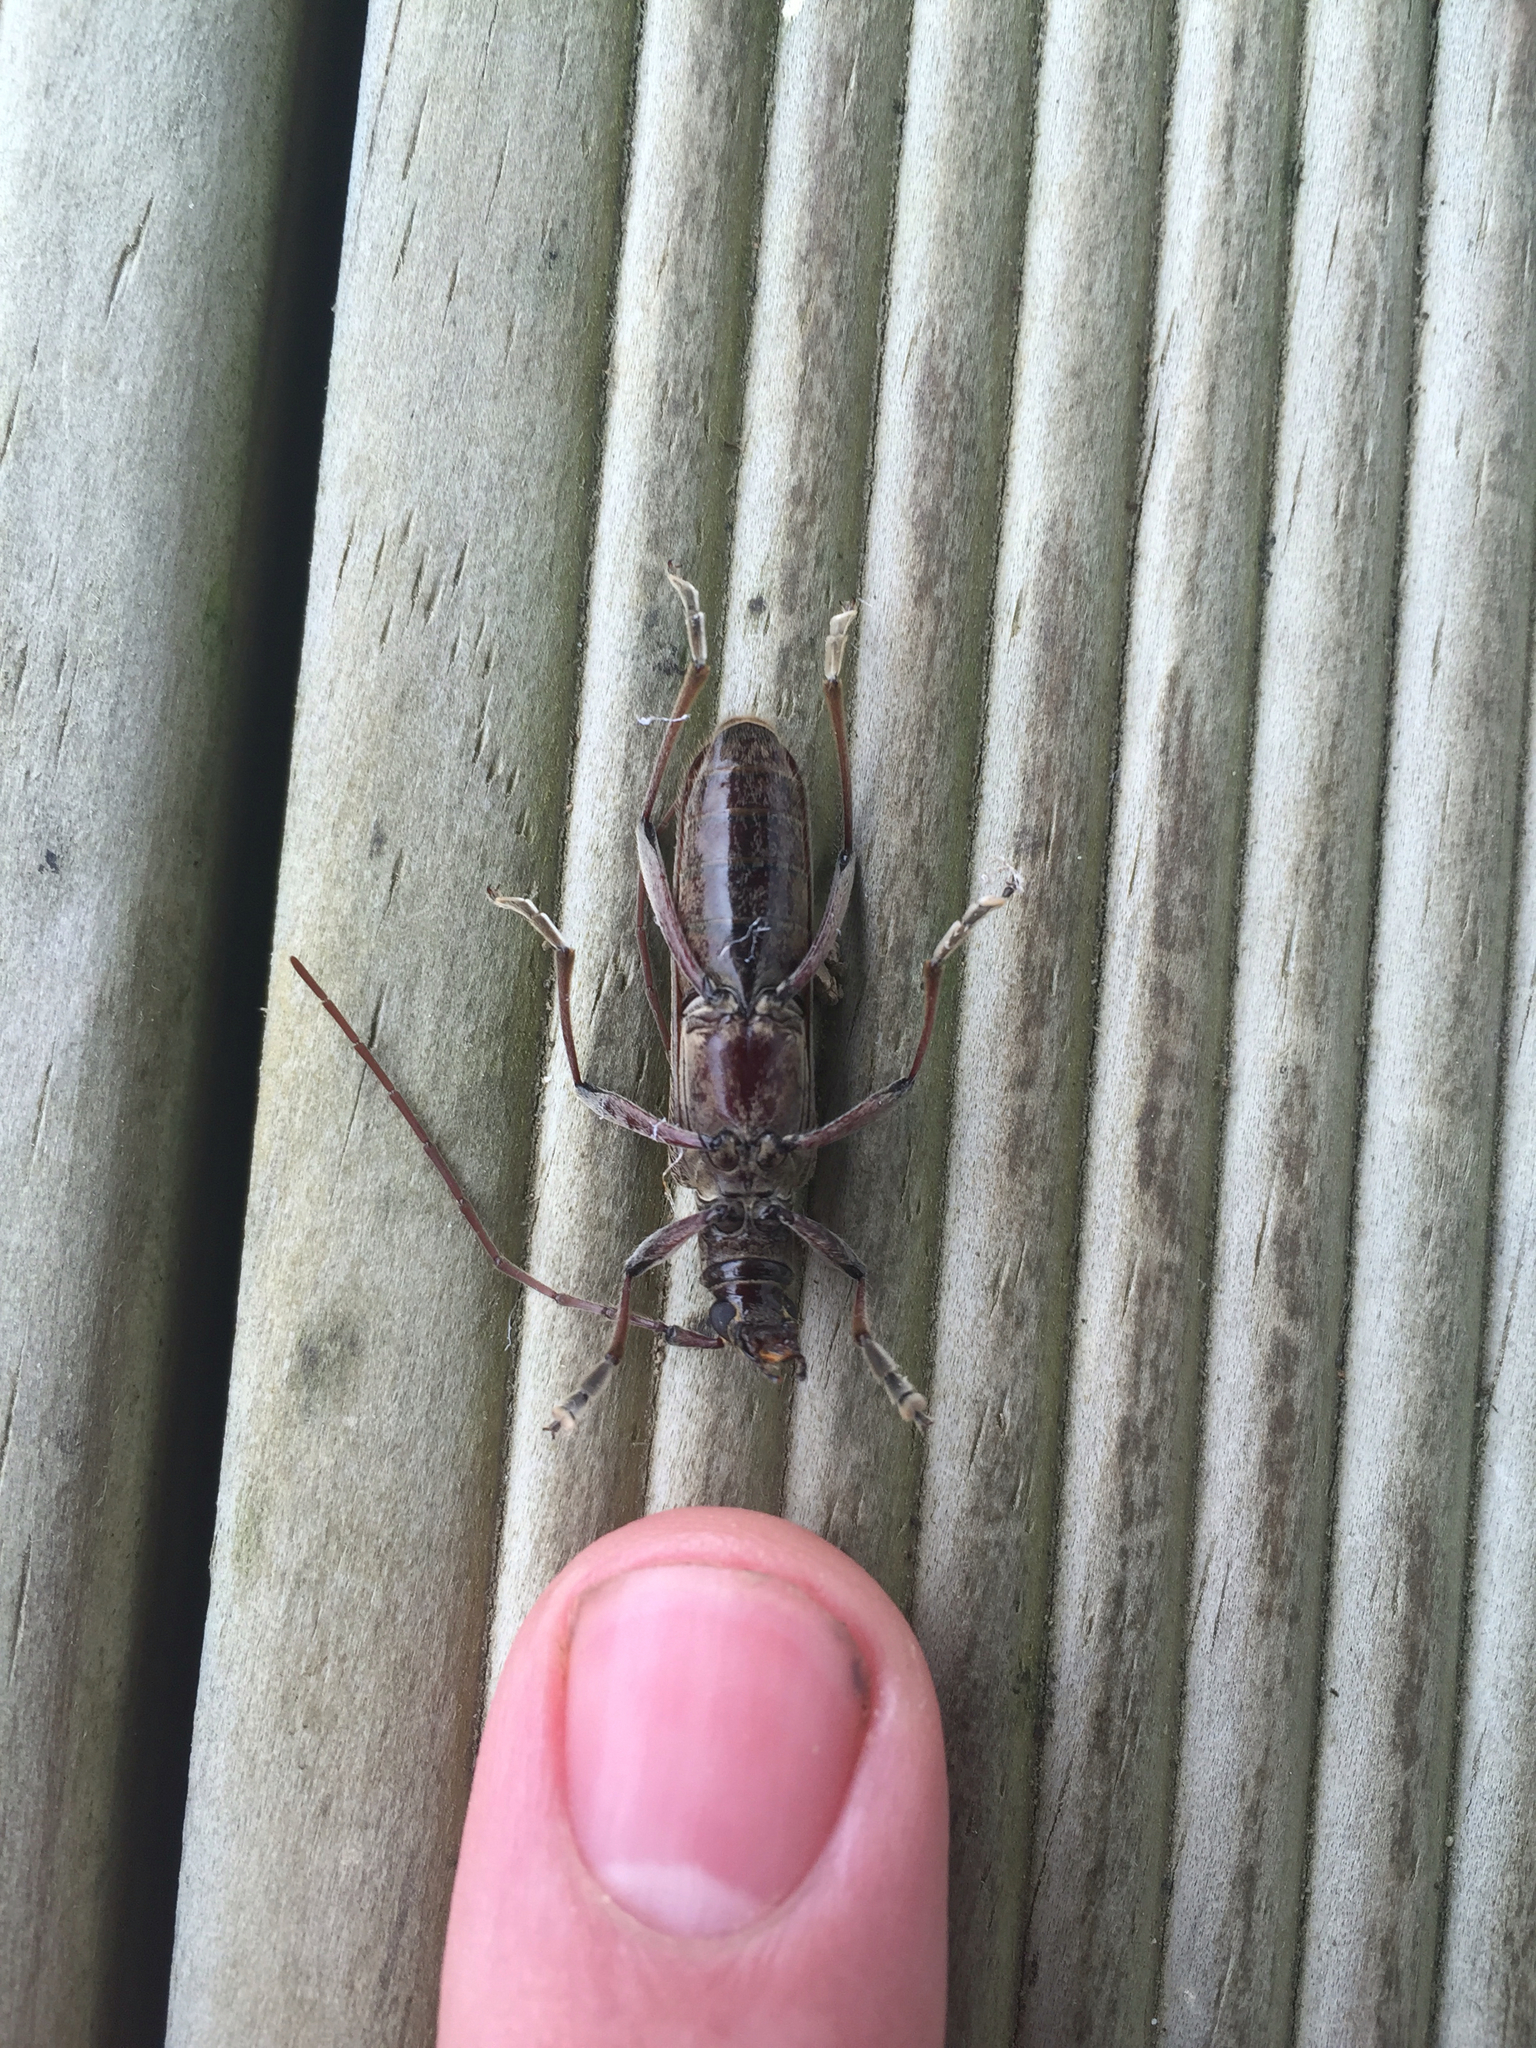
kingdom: Animalia
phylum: Arthropoda
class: Insecta
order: Coleoptera
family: Cerambycidae
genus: Oemona
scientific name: Oemona hirta
